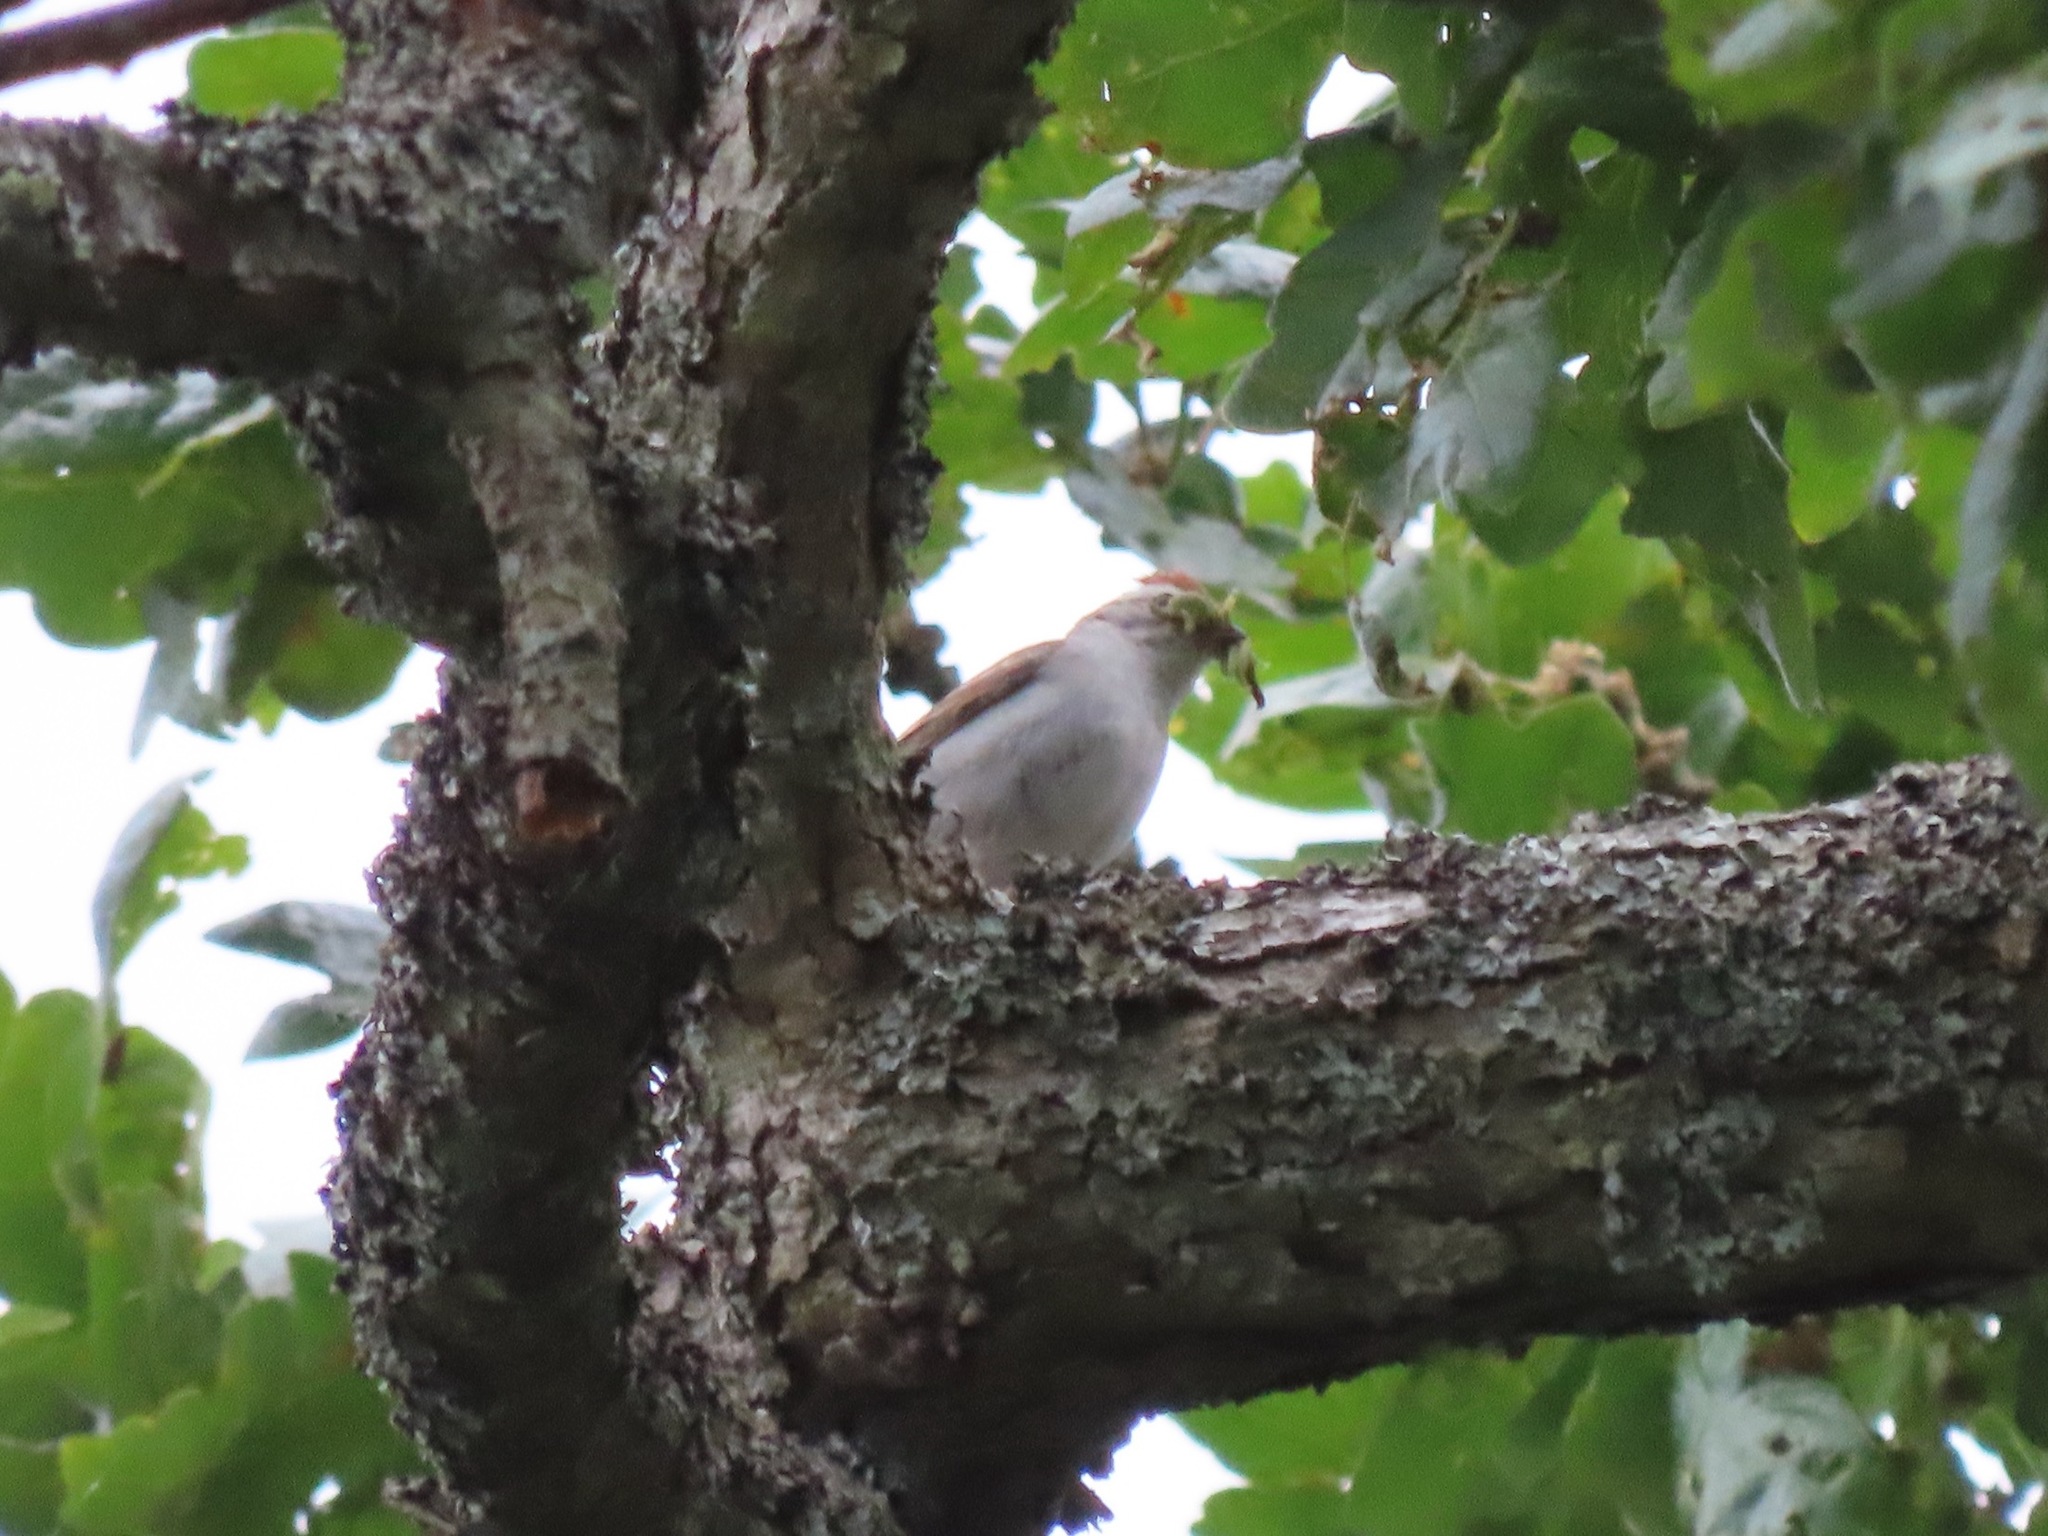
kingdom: Animalia
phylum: Chordata
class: Aves
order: Passeriformes
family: Passerellidae
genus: Spizella
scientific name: Spizella passerina
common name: Chipping sparrow
